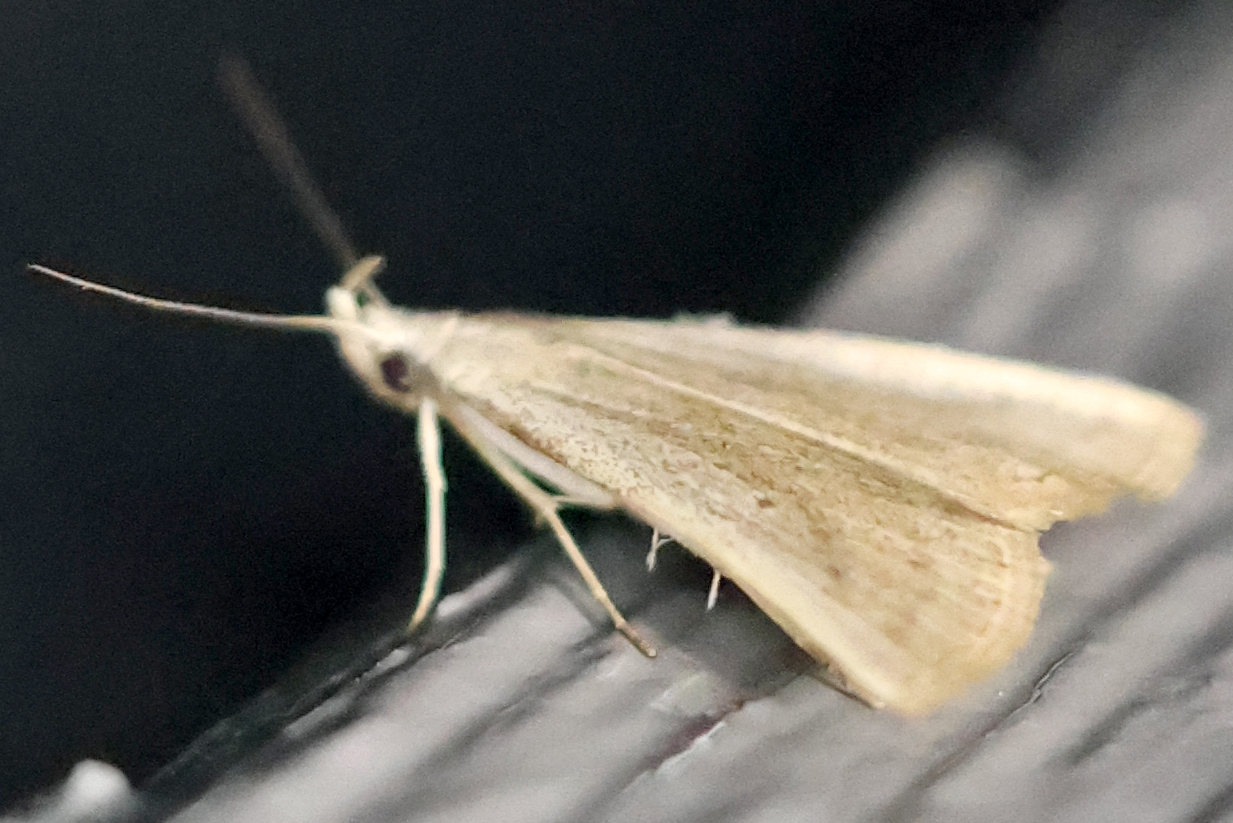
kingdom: Animalia
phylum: Arthropoda
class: Insecta
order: Lepidoptera
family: Erebidae
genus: Macrochilo
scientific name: Macrochilo louisiana
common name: Louisiana macrochilo
